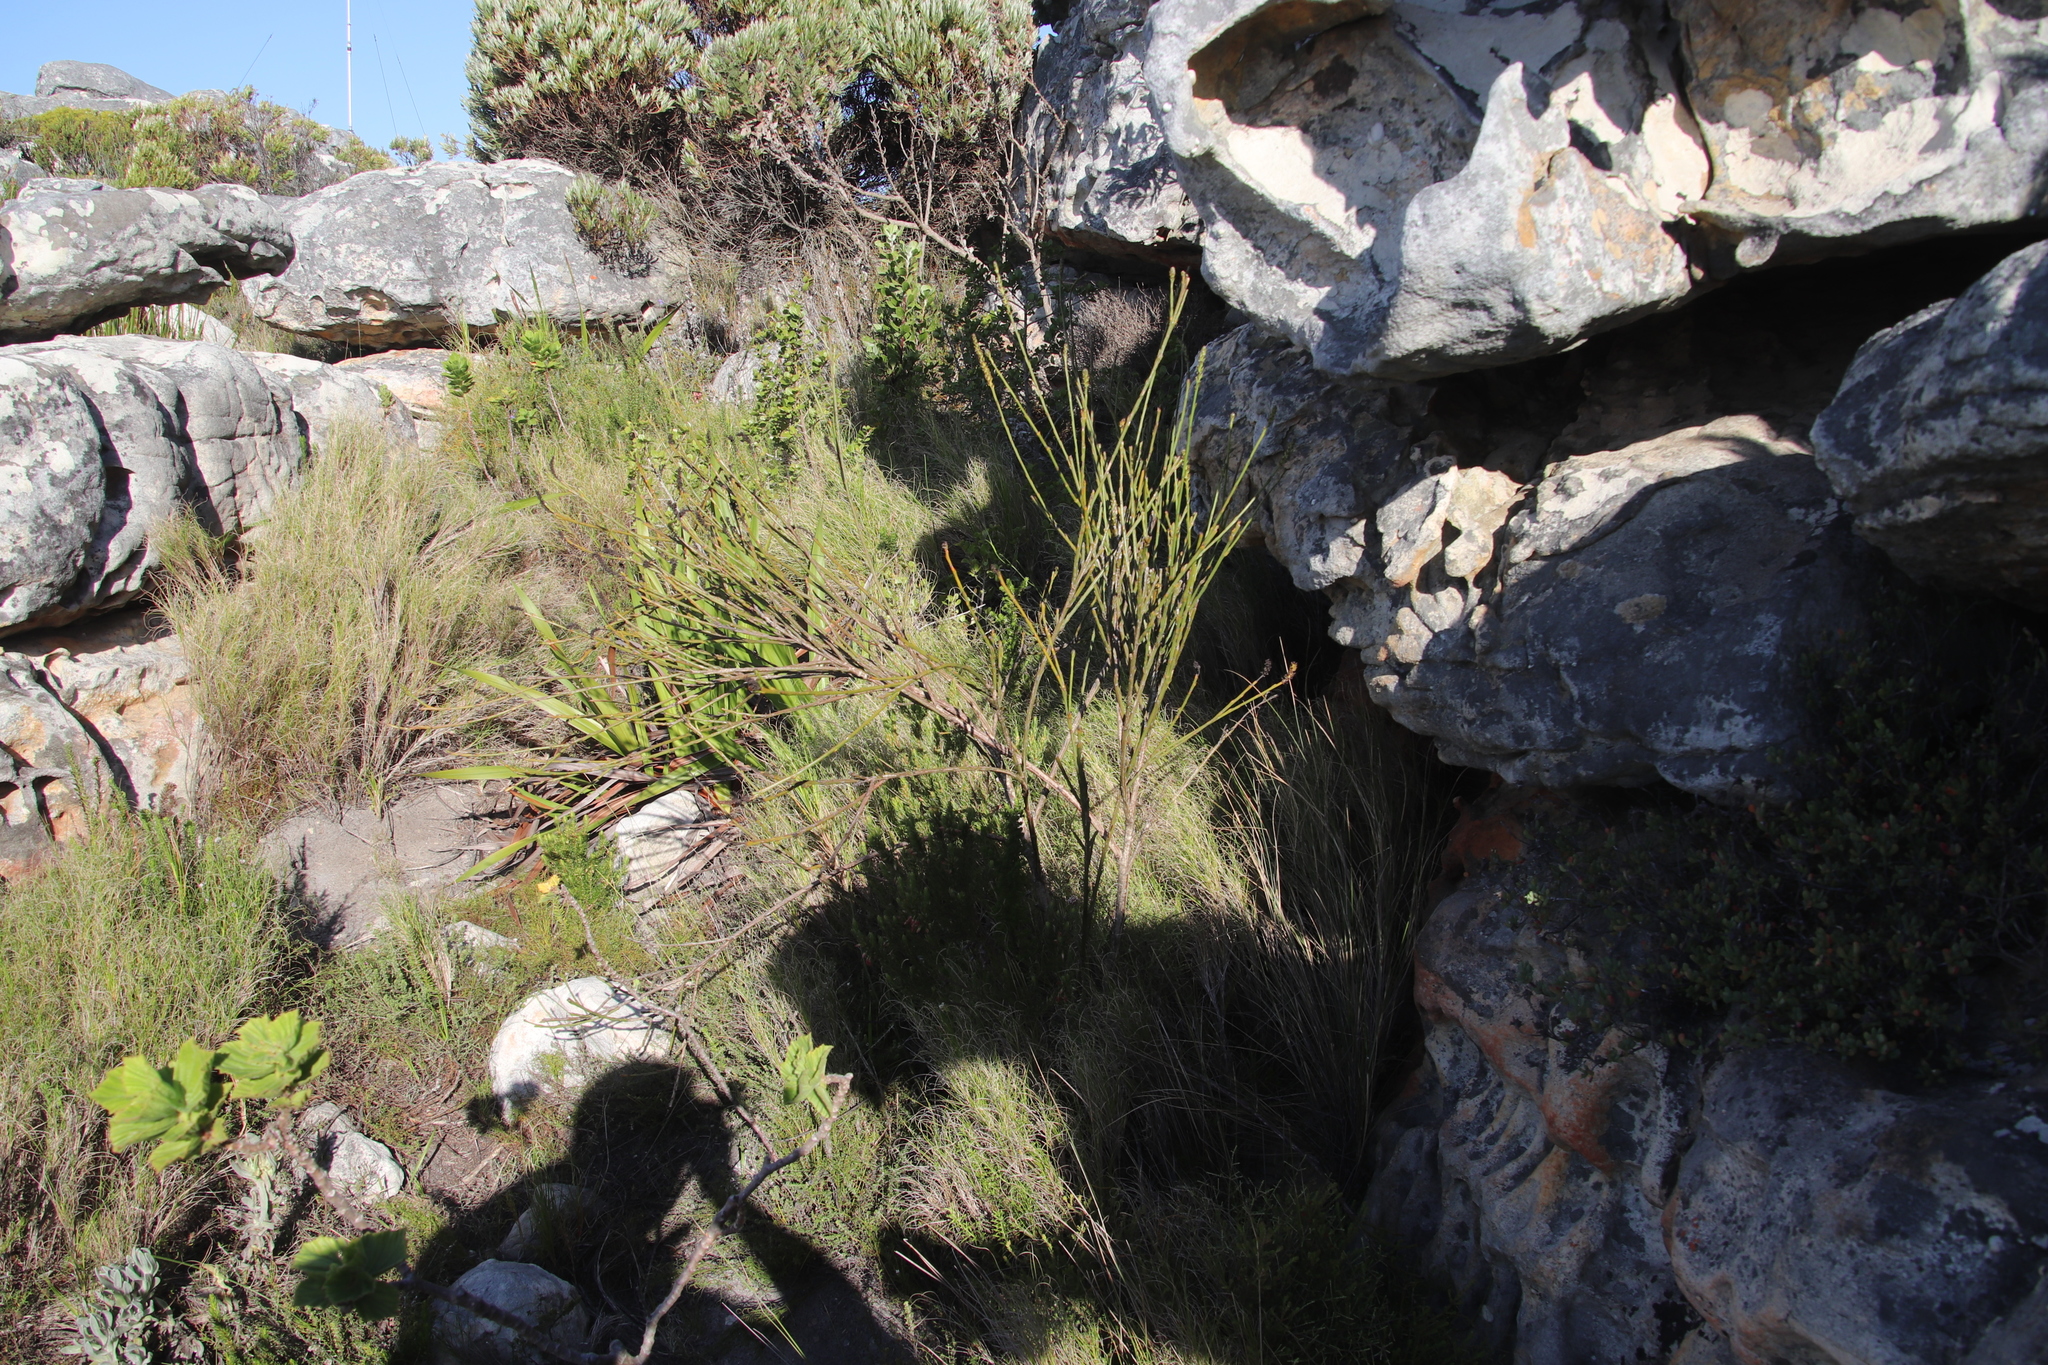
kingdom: Plantae
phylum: Tracheophyta
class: Magnoliopsida
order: Santalales
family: Thesiaceae
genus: Thesium
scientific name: Thesium strictum
